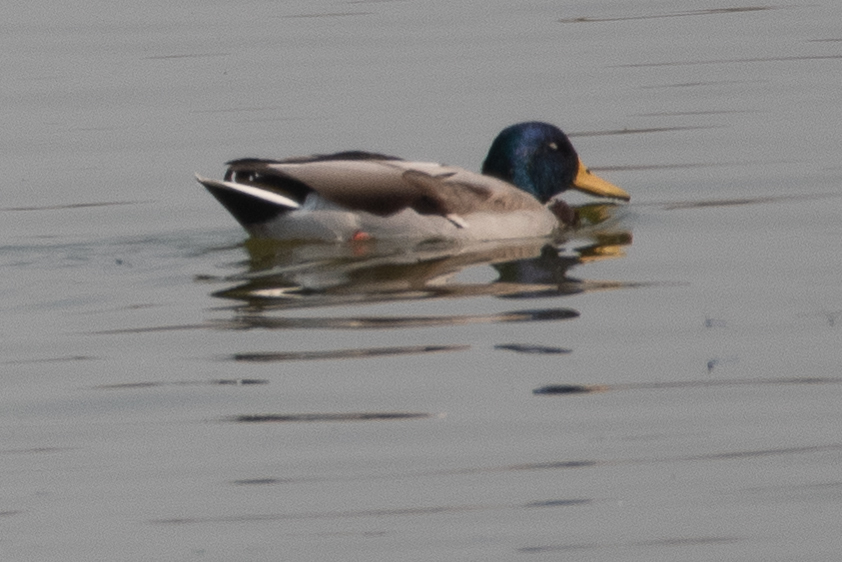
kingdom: Animalia
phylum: Chordata
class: Aves
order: Anseriformes
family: Anatidae
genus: Anas
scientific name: Anas platyrhynchos
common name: Mallard
